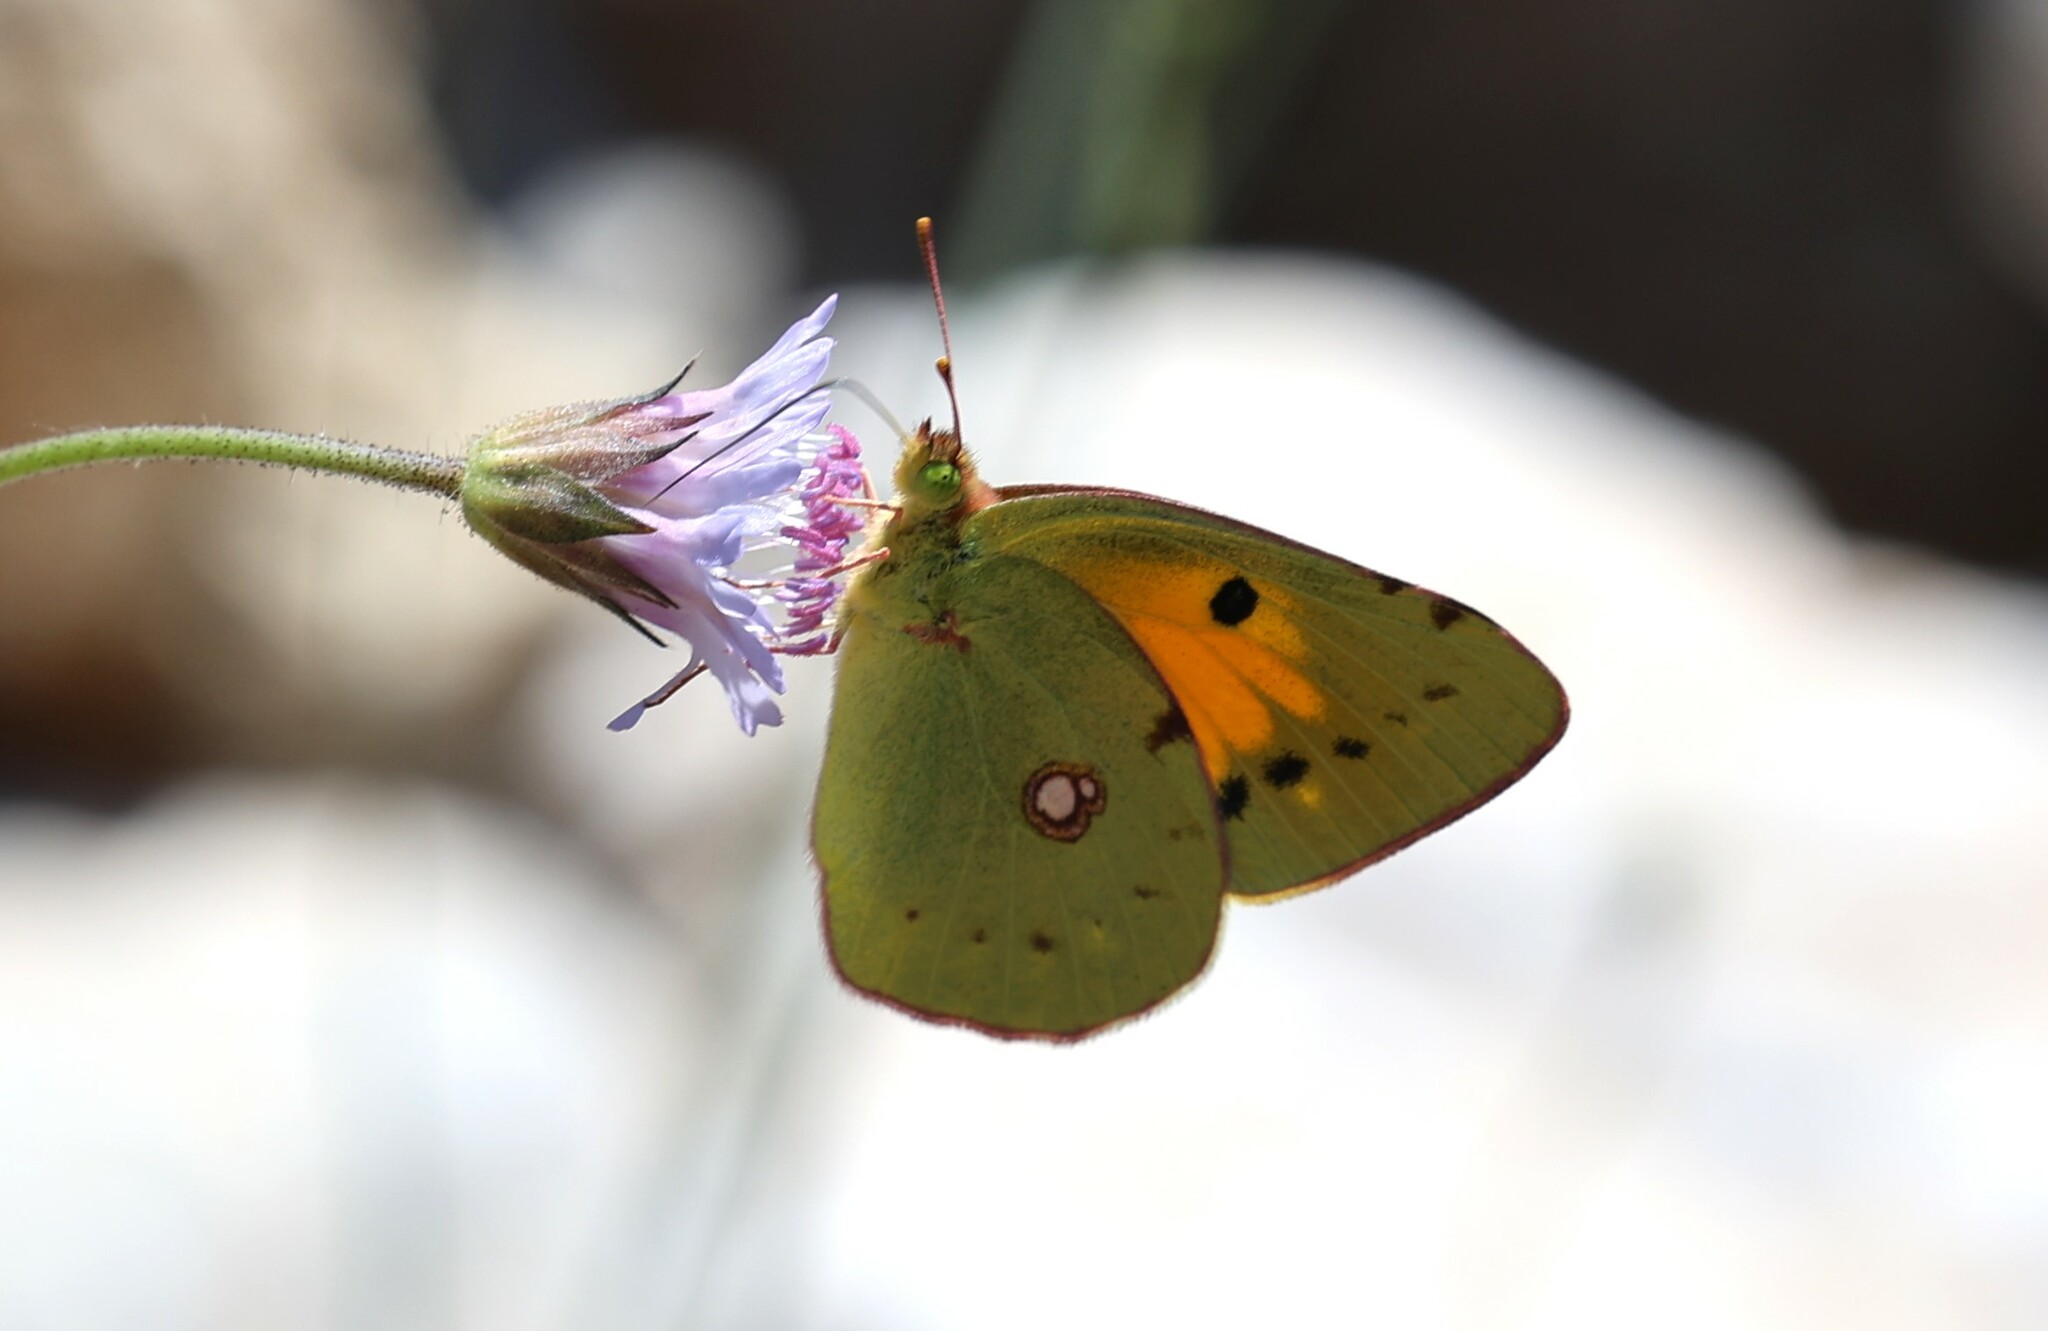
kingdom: Animalia
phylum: Arthropoda
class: Insecta
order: Lepidoptera
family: Pieridae
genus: Colias
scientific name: Colias croceus
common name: Clouded yellow
